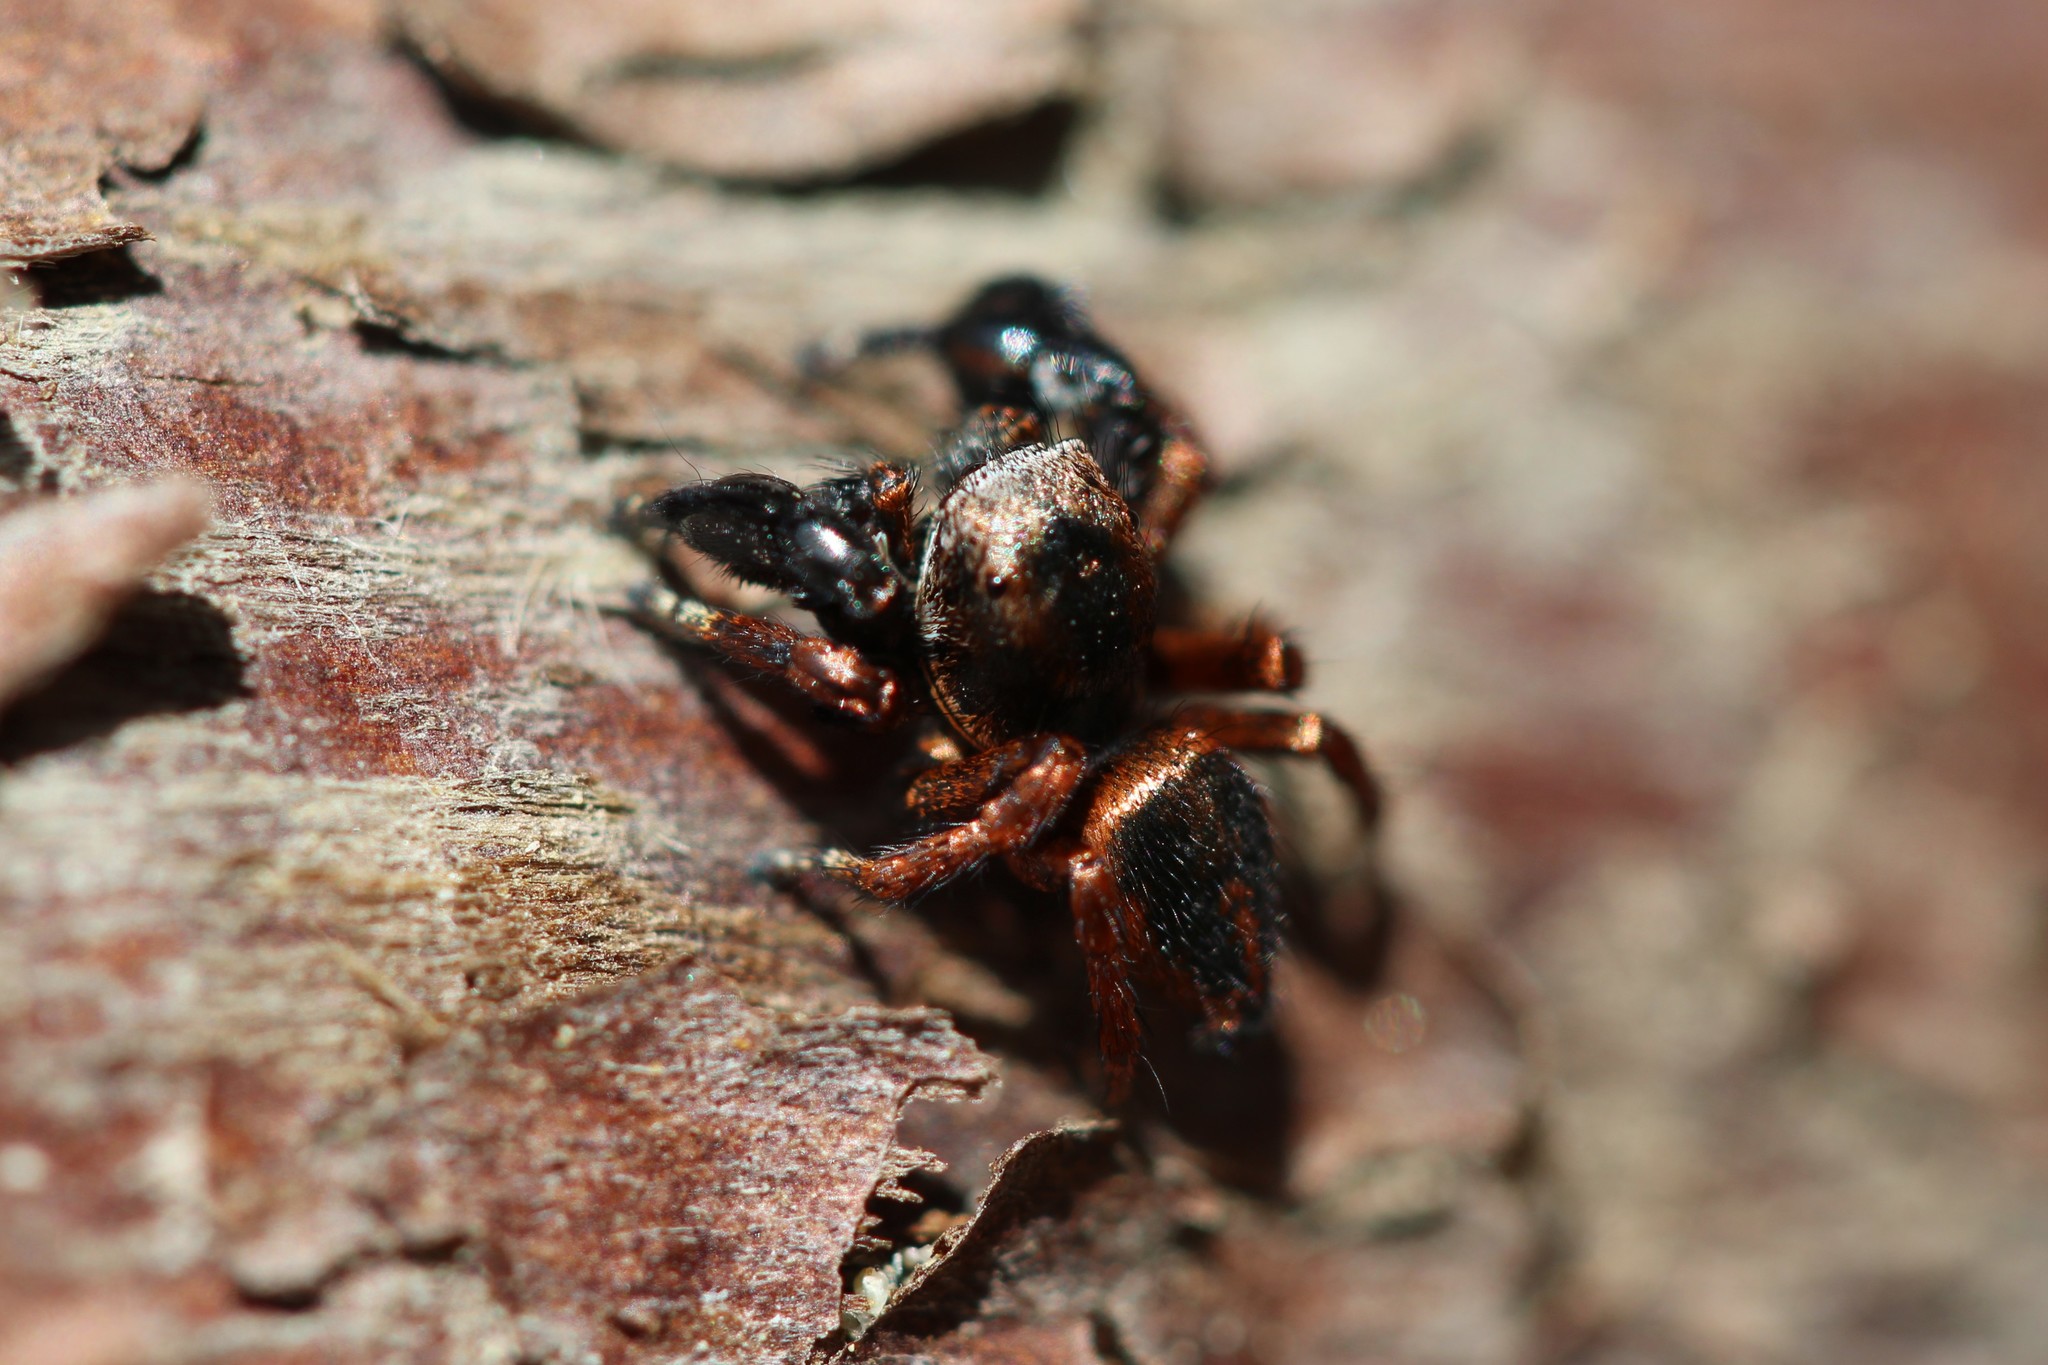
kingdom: Animalia
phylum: Arthropoda
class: Arachnida
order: Araneae
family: Salticidae
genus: Habronattus
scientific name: Habronattus oregonensis
